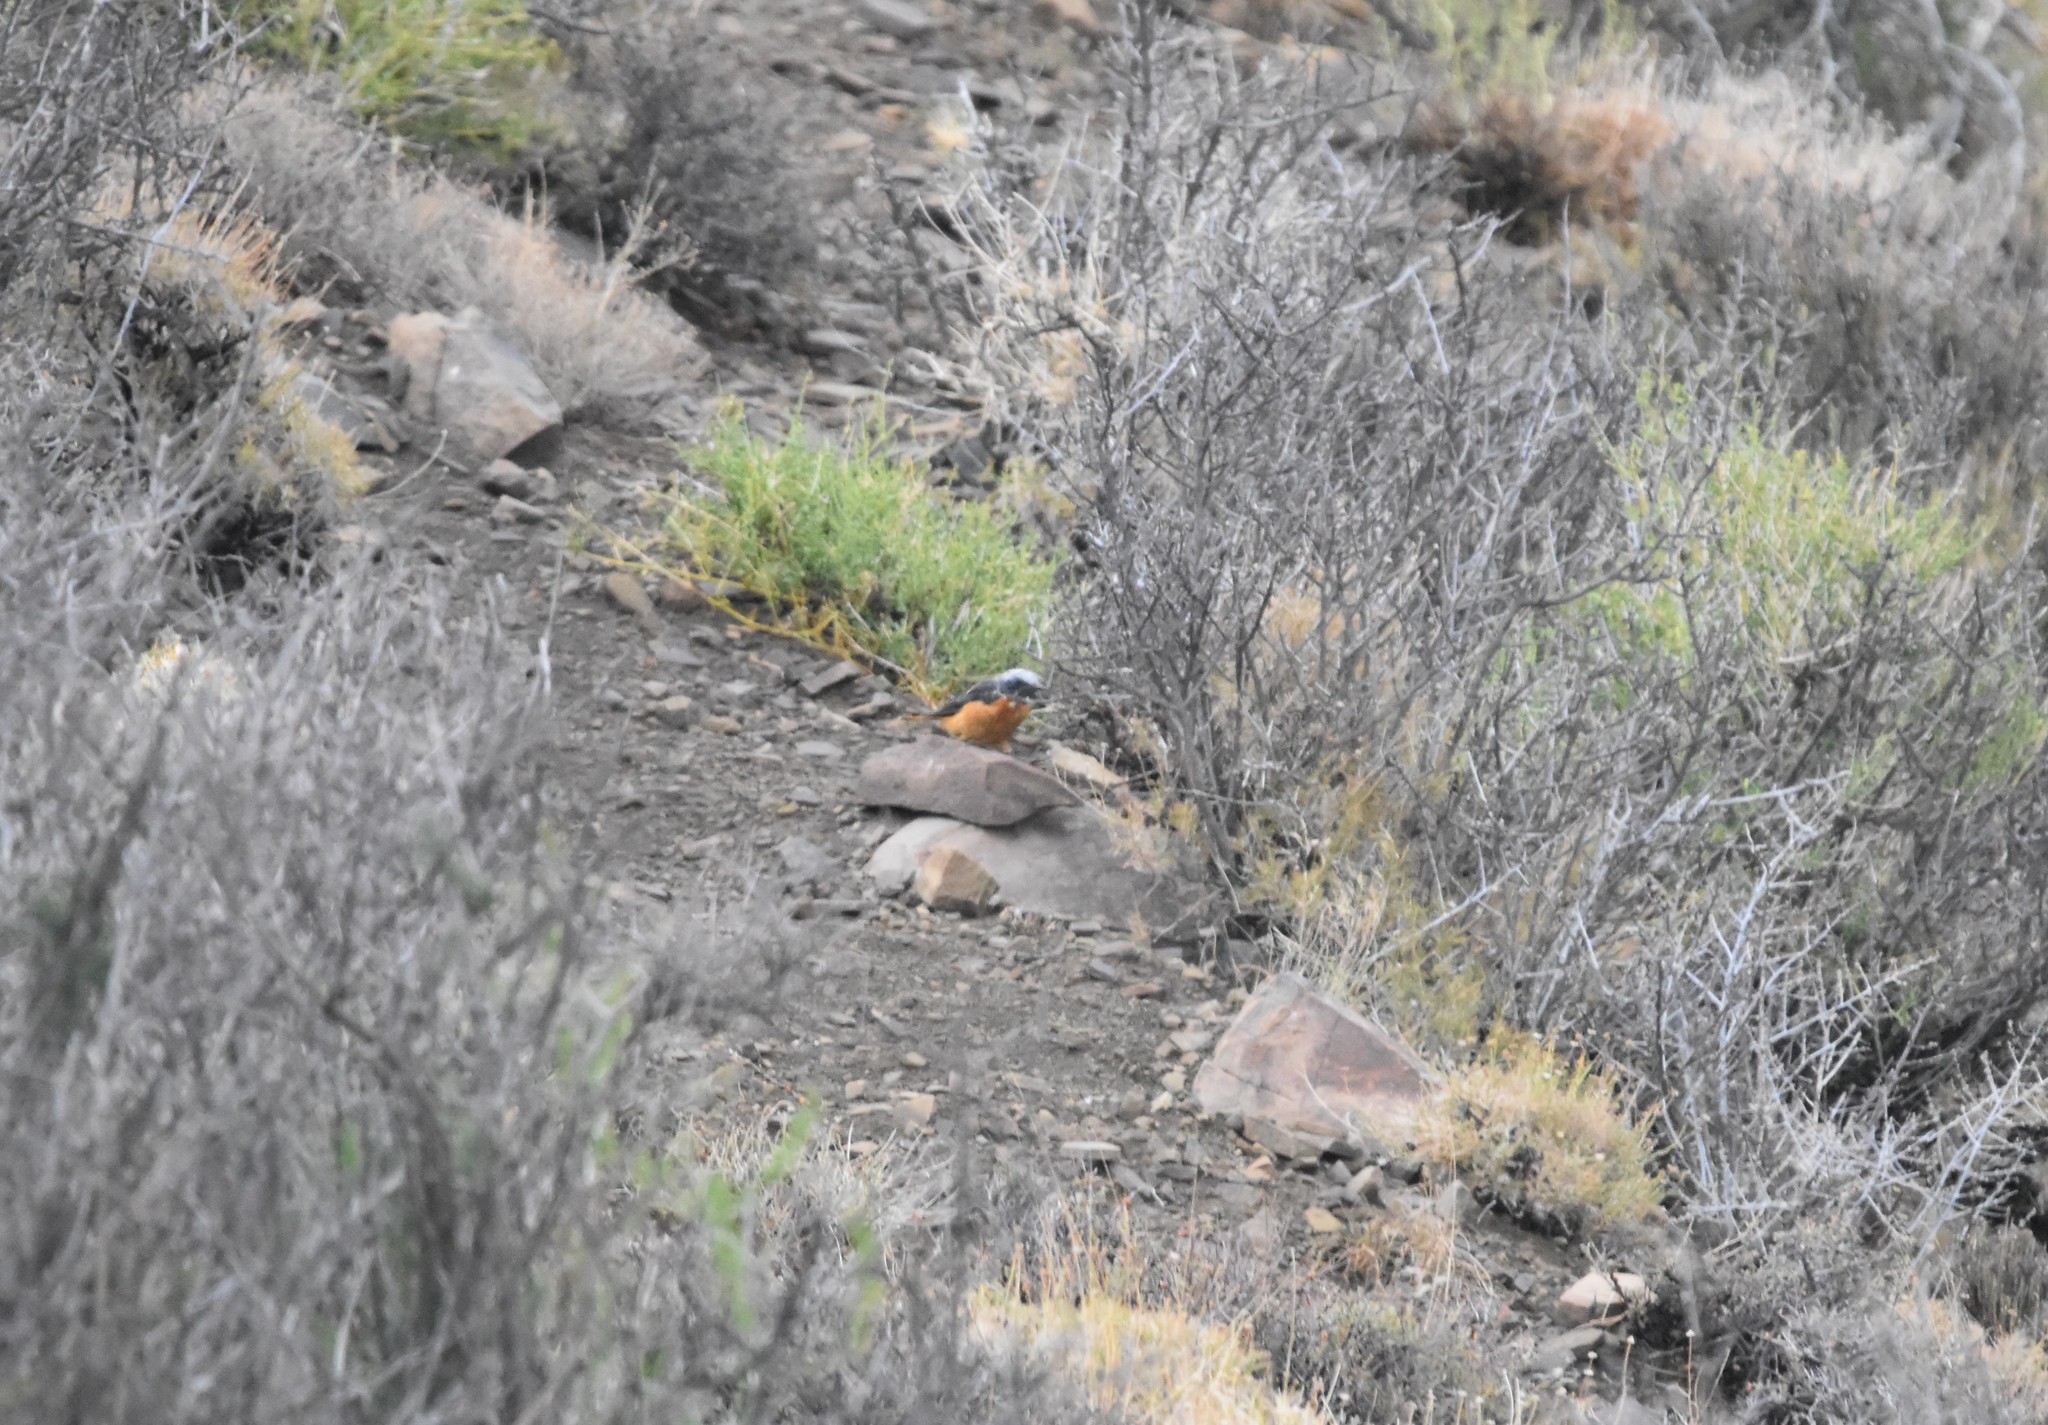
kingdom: Animalia
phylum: Chordata
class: Aves
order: Passeriformes
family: Muscicapidae
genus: Monticola
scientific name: Monticola brevipes
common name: Short-toed rock thrush
